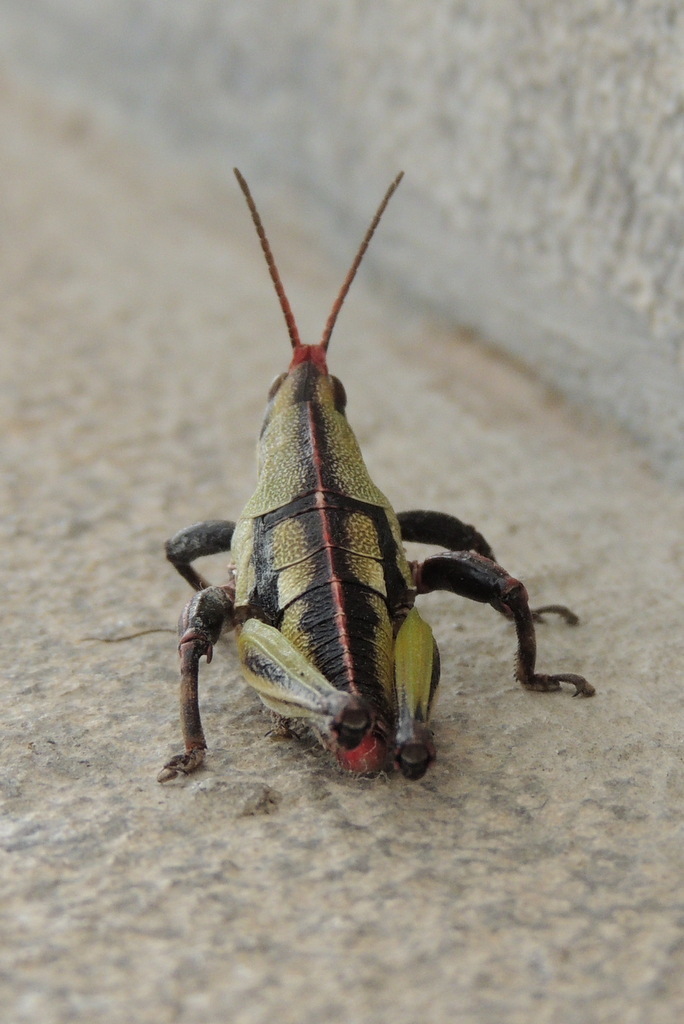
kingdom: Animalia
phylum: Arthropoda
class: Insecta
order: Orthoptera
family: Pyrgomorphidae
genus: Sphenarium
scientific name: Sphenarium purpurascens
